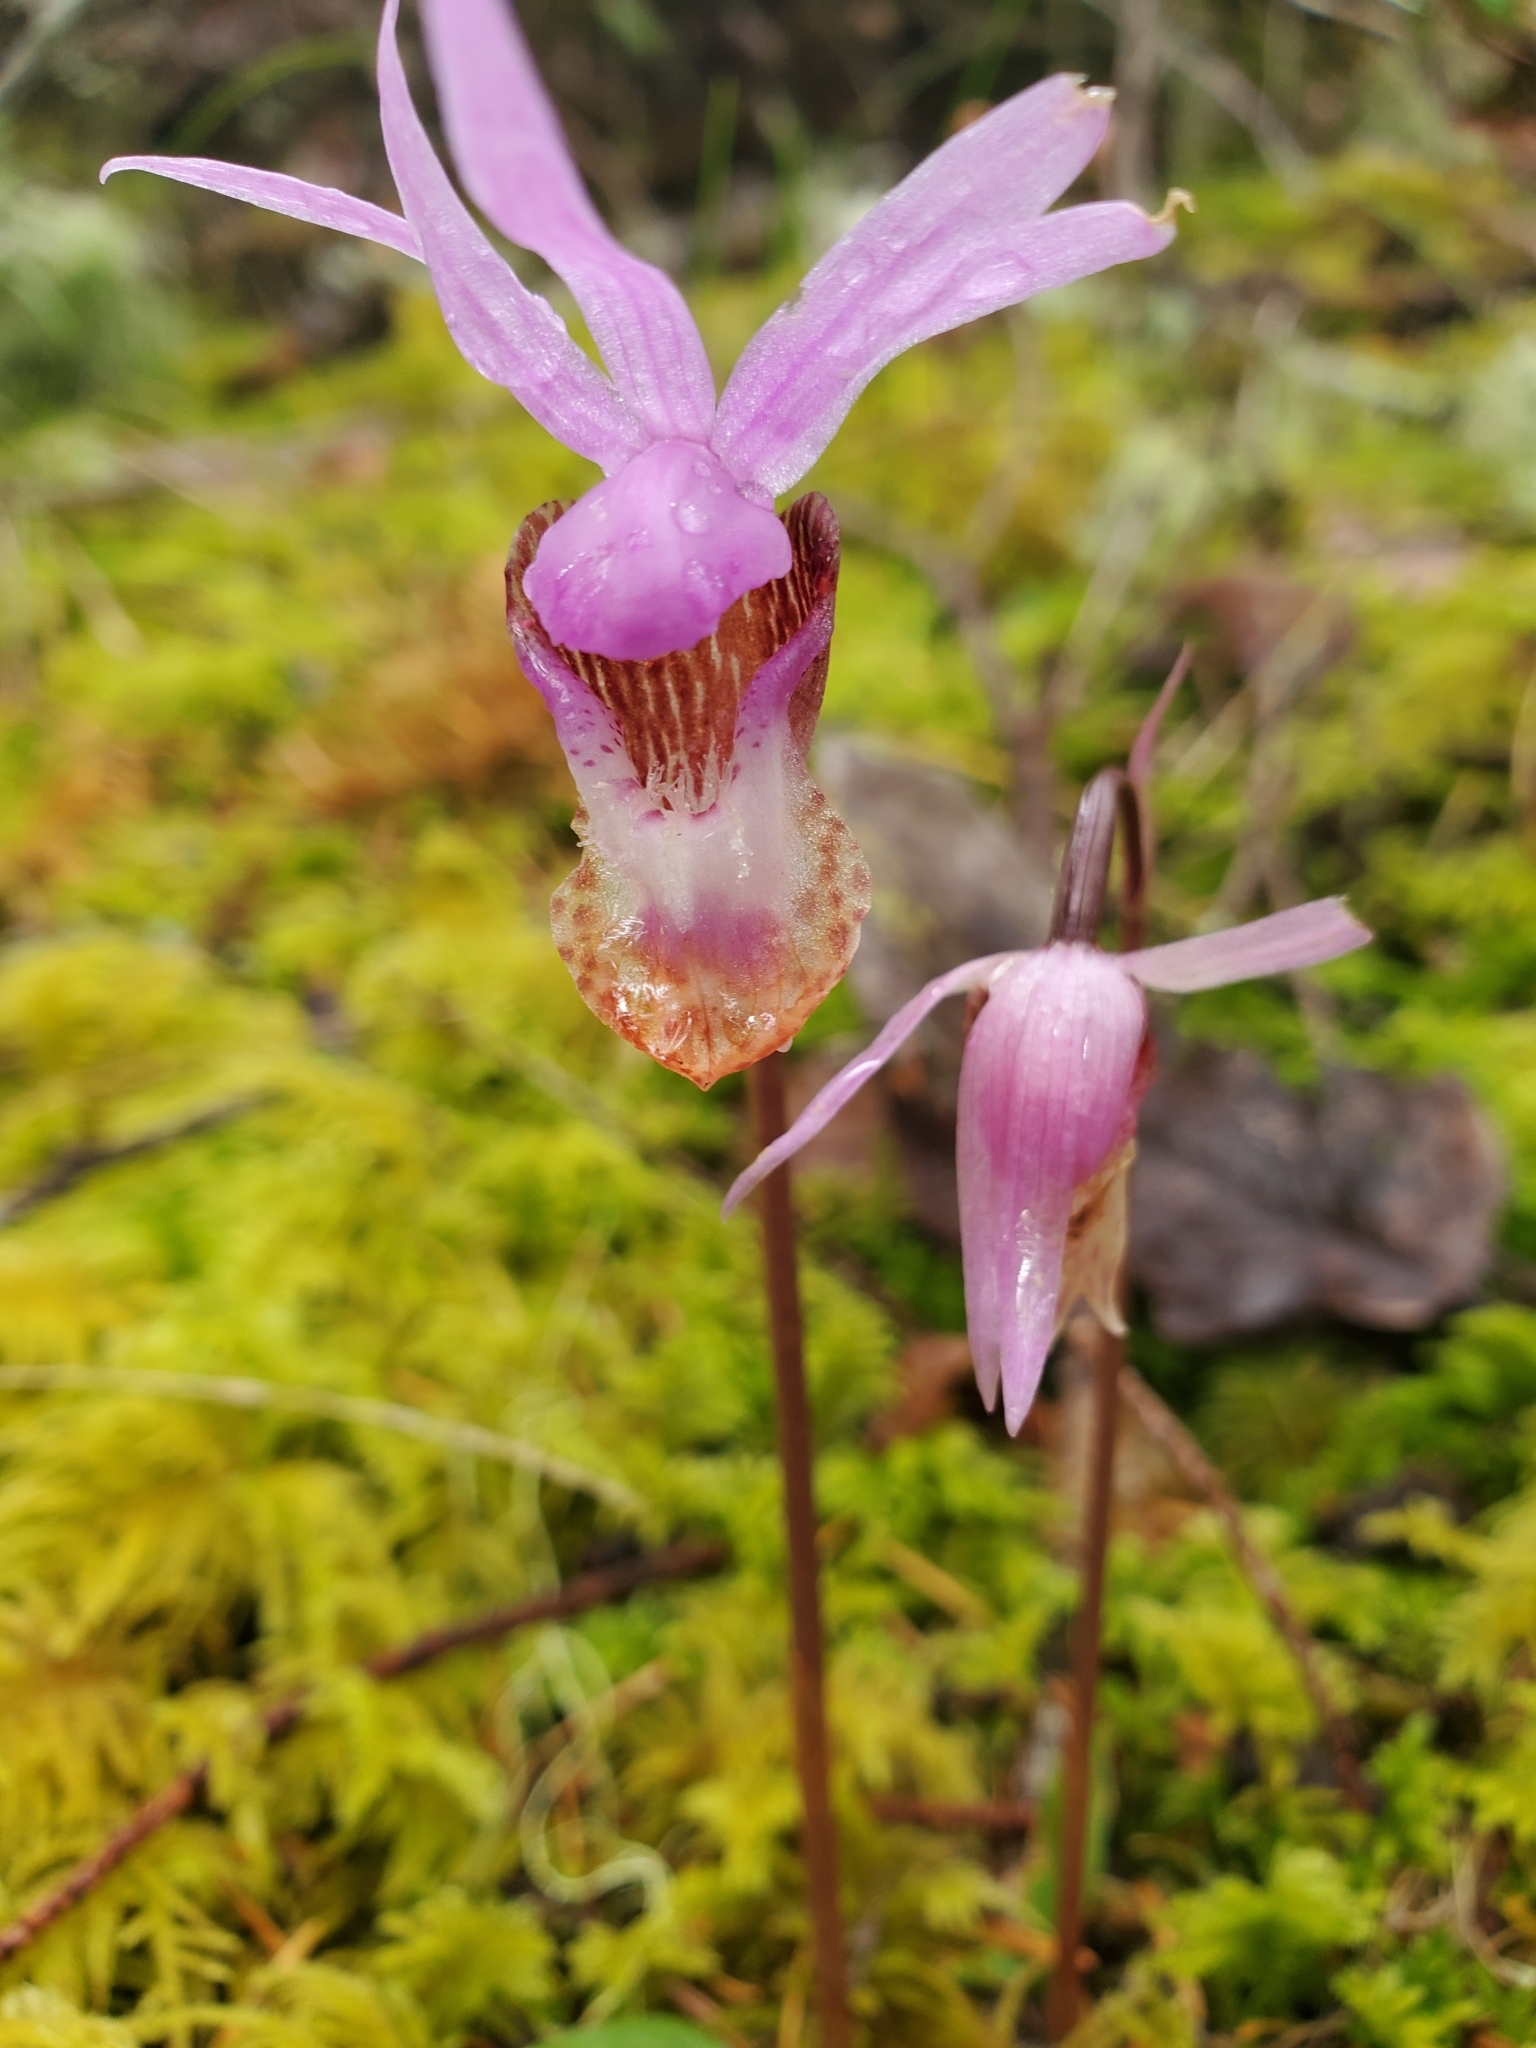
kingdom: Plantae
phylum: Tracheophyta
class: Liliopsida
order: Asparagales
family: Orchidaceae
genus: Calypso
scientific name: Calypso bulbosa
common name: Calypso
